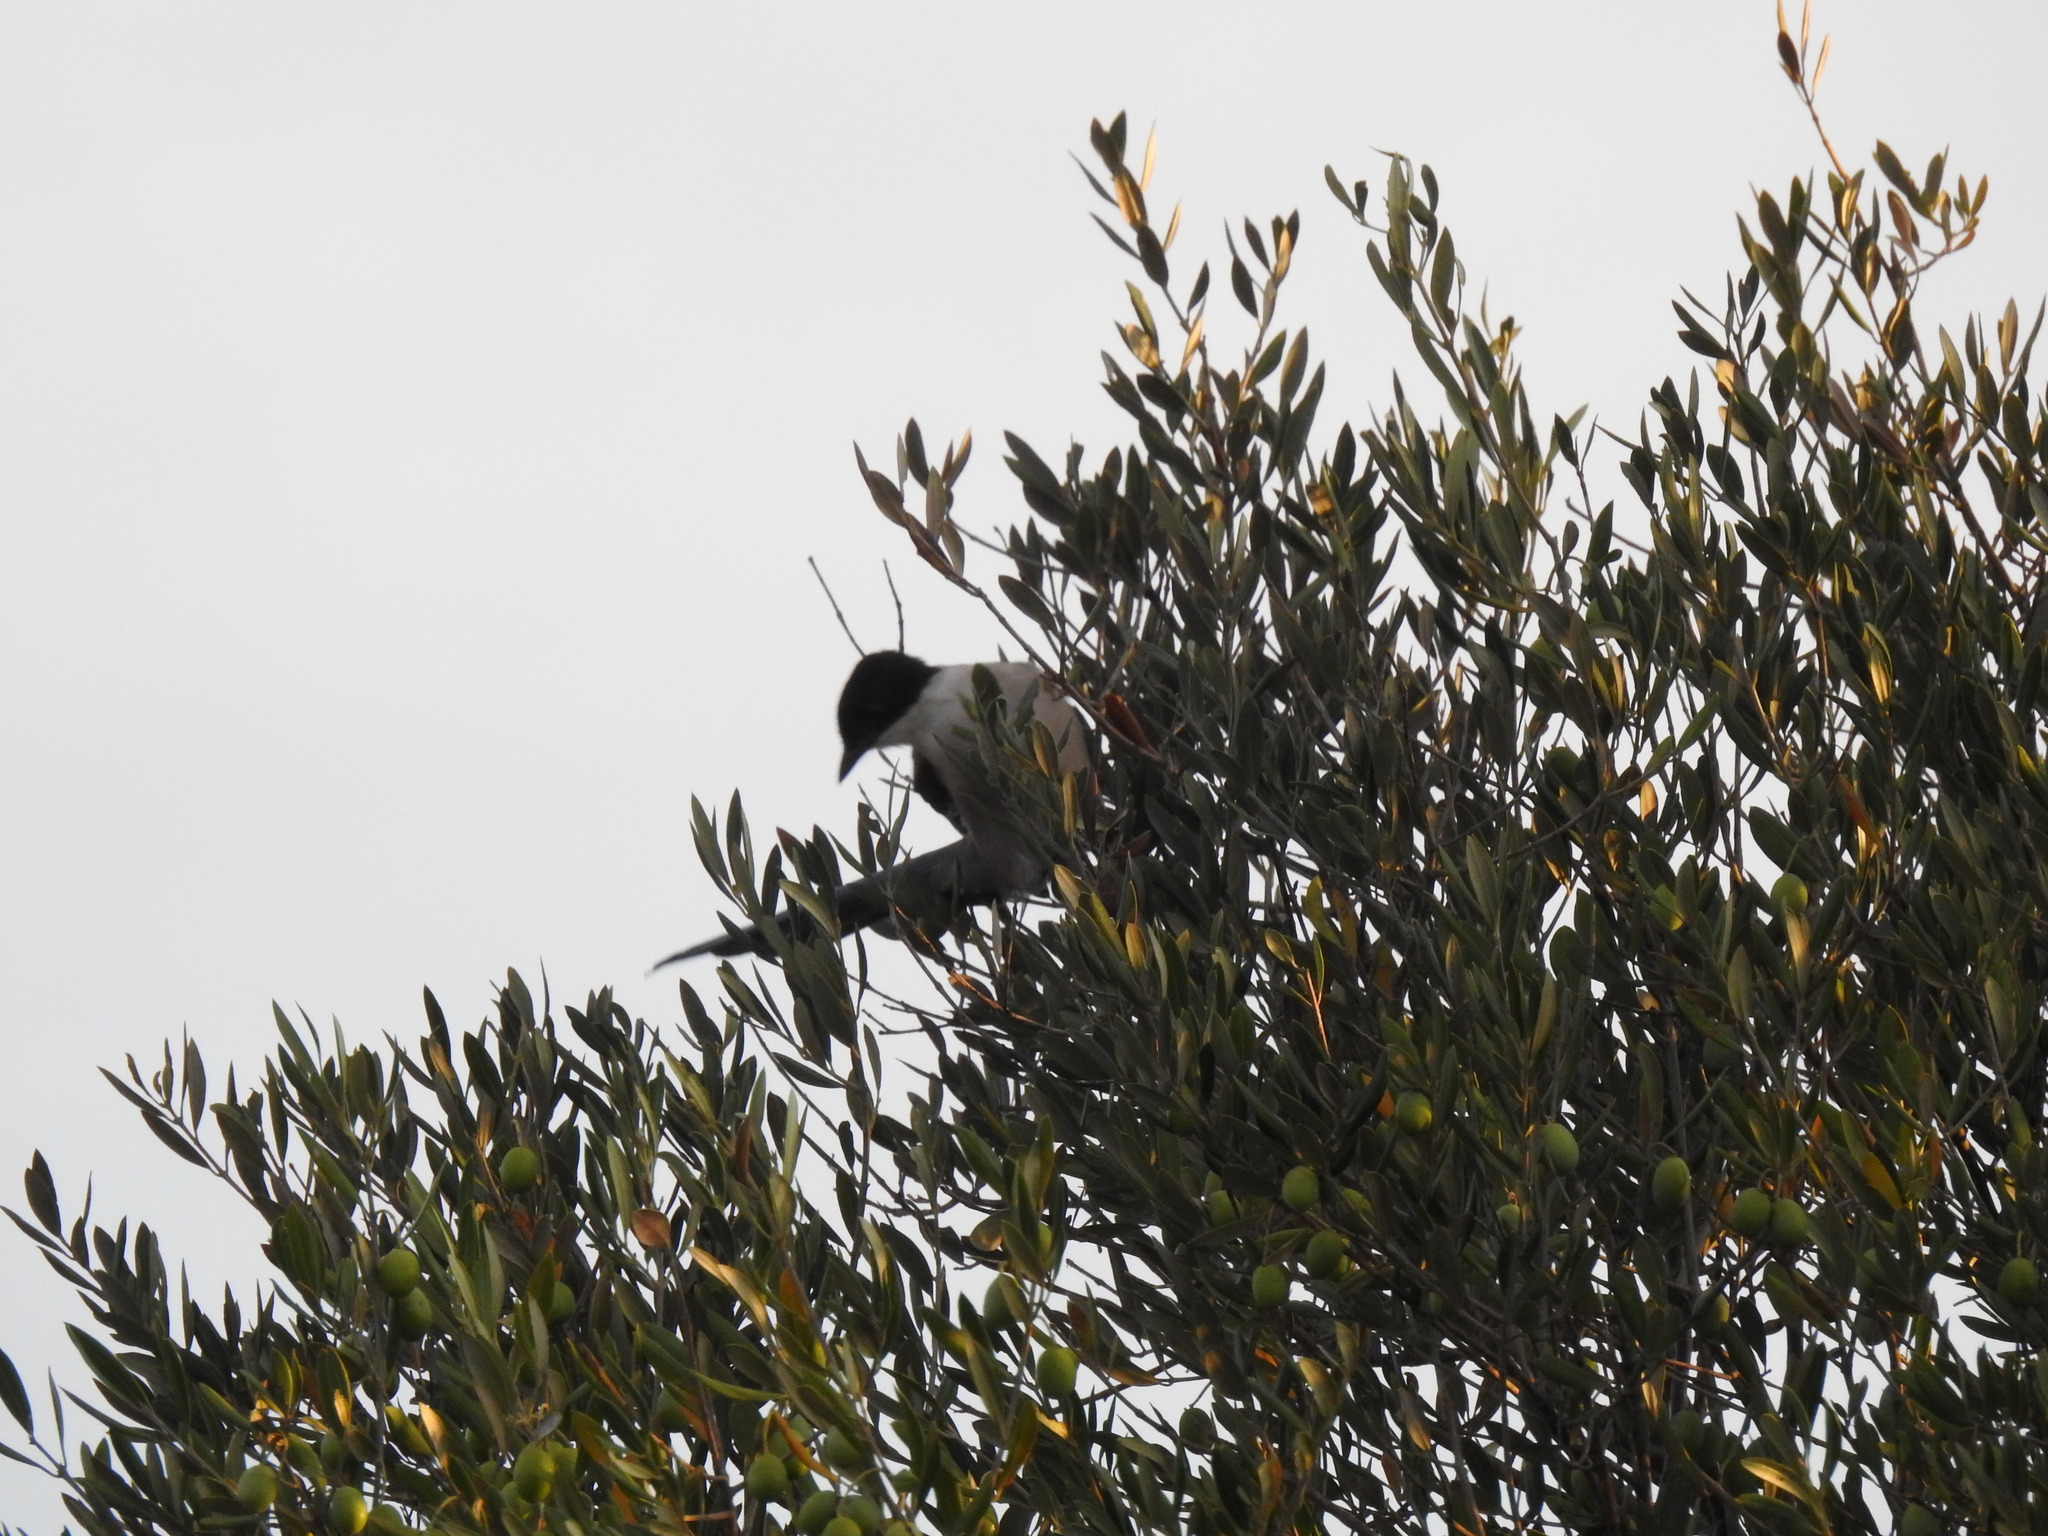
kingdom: Animalia
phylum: Chordata
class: Aves
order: Passeriformes
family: Corvidae
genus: Cyanopica
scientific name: Cyanopica cooki
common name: Iberian magpie
